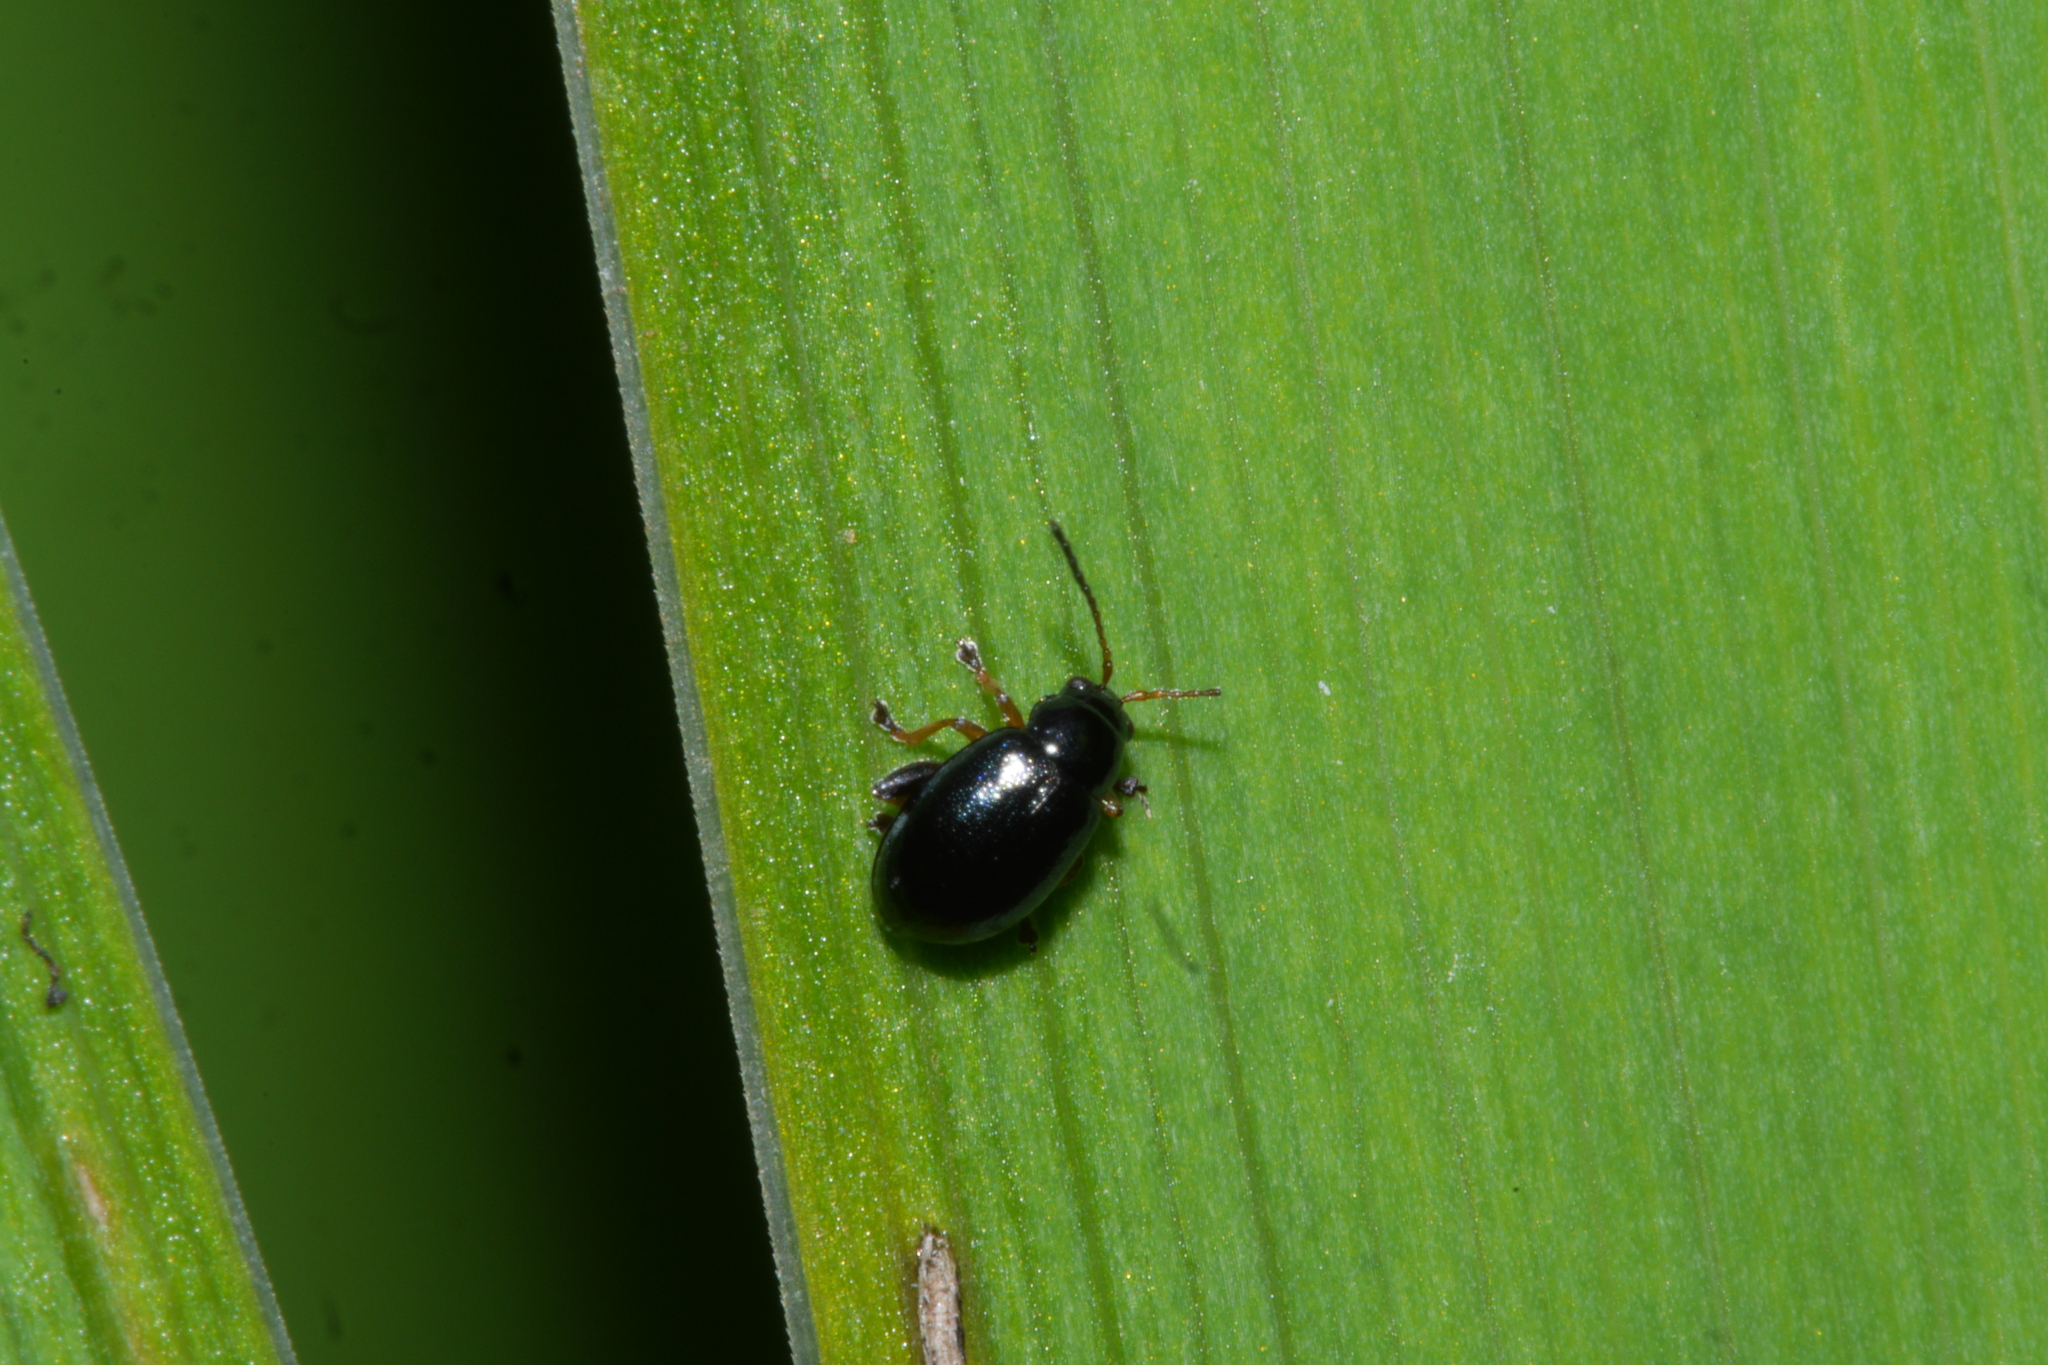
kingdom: Animalia
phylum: Arthropoda
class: Insecta
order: Coleoptera
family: Chrysomelidae
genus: Aphthona
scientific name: Aphthona nonstriata
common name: Iris flea beetle
